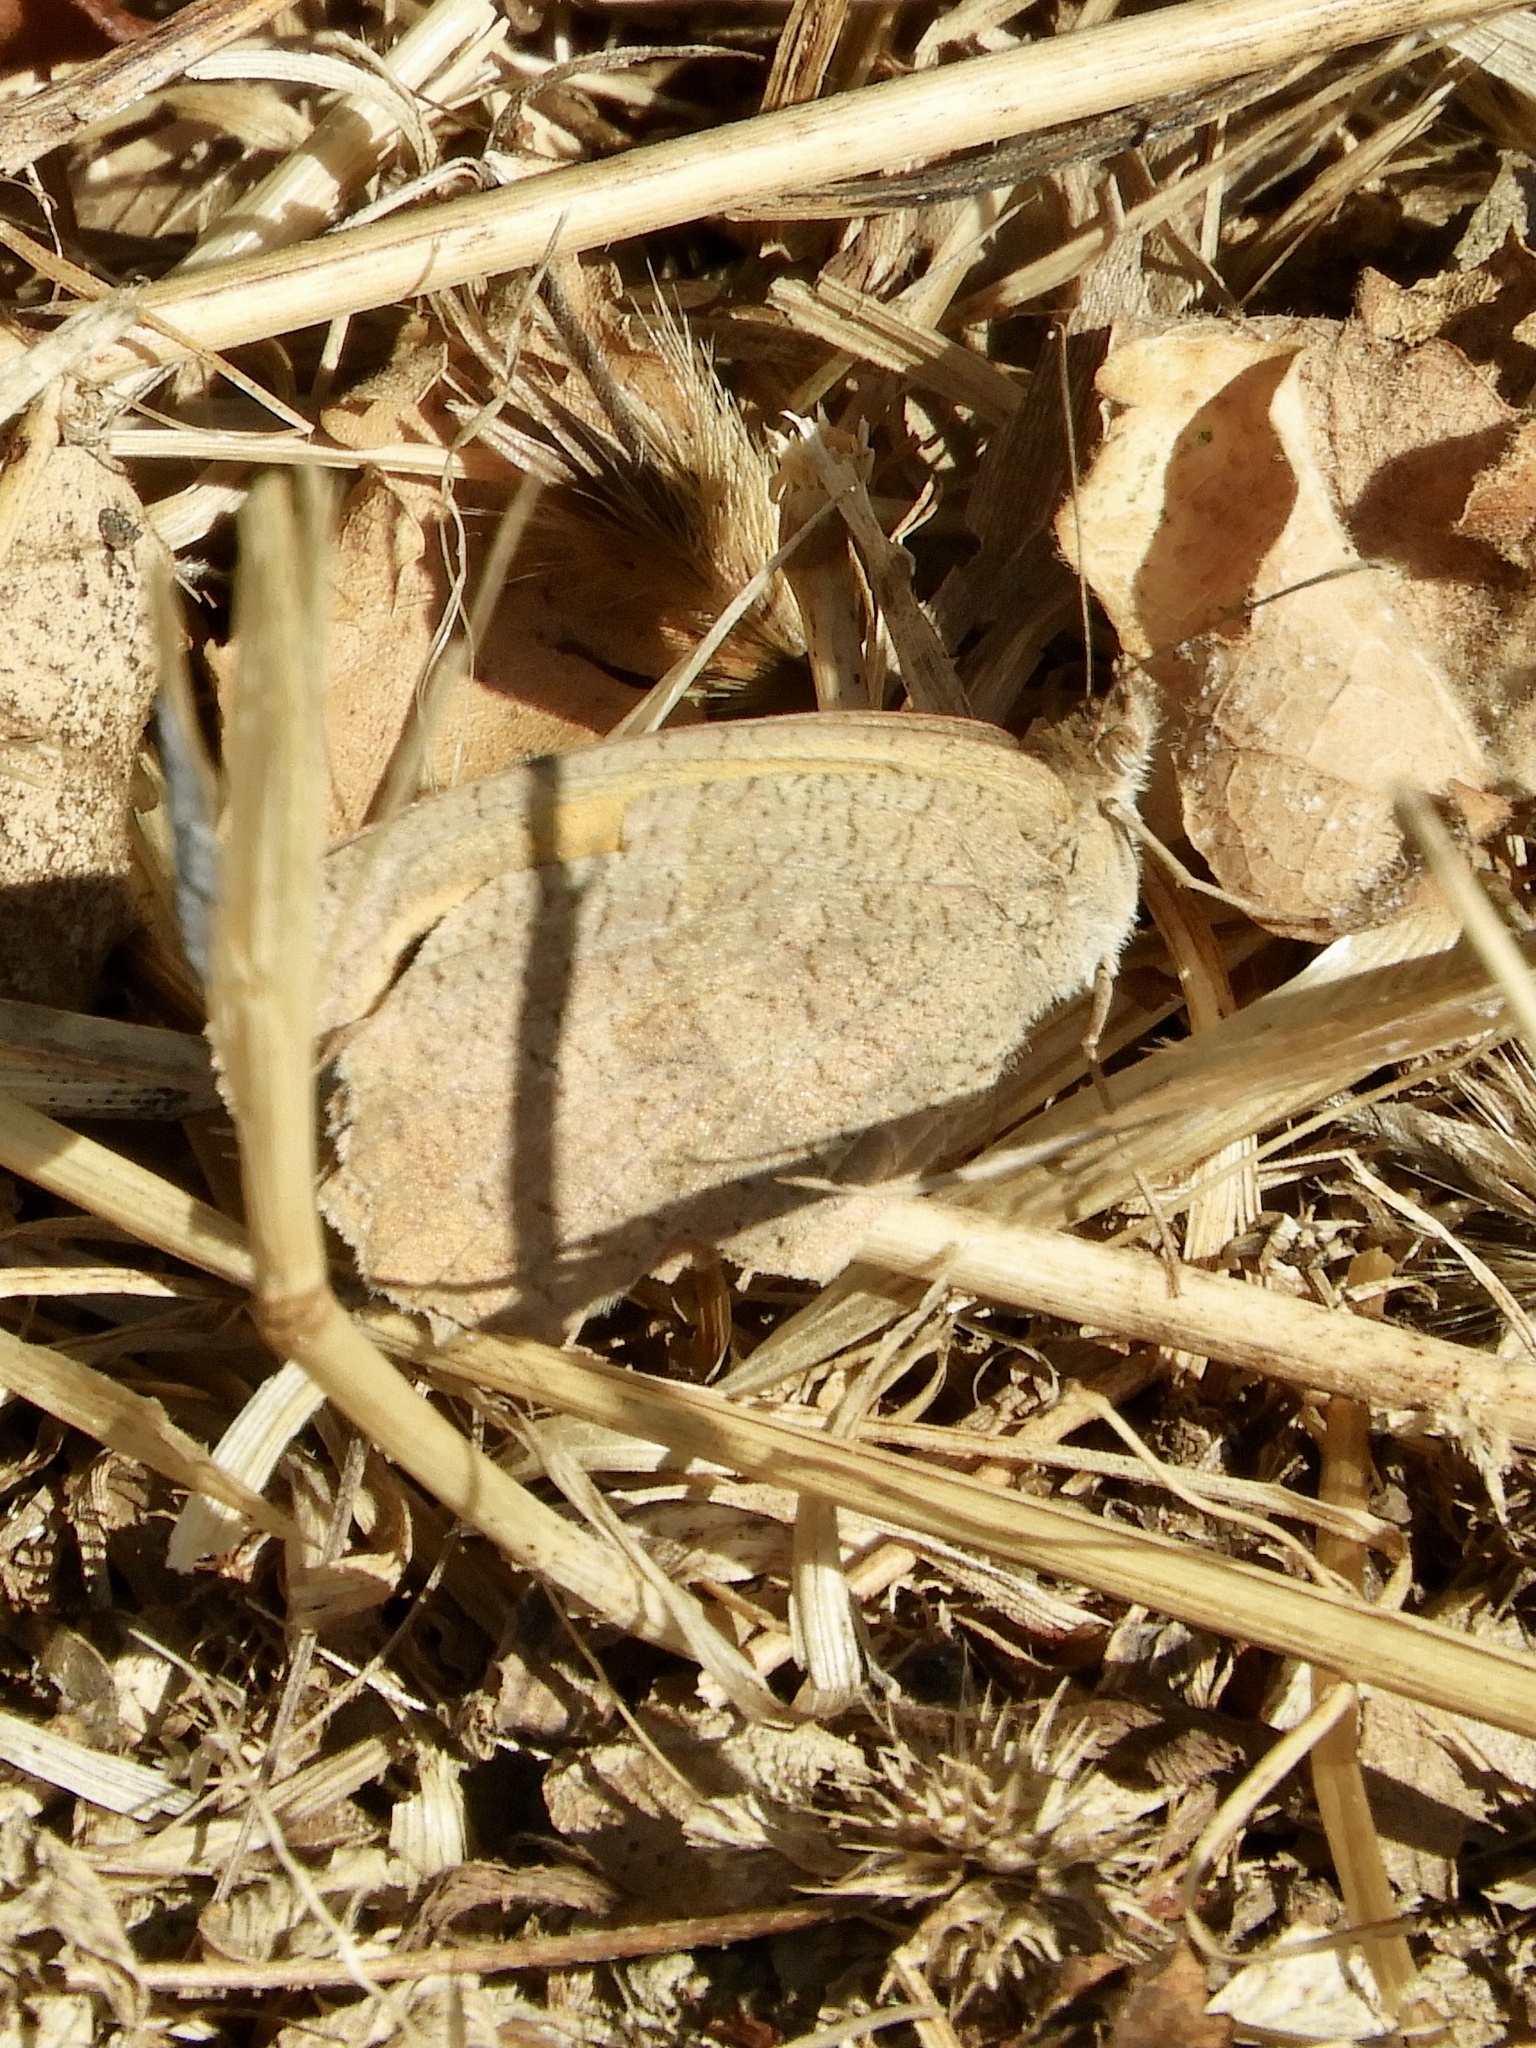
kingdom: Animalia
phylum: Arthropoda
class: Insecta
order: Lepidoptera
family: Nymphalidae
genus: Maniola
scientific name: Maniola jurtina
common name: Meadow brown
